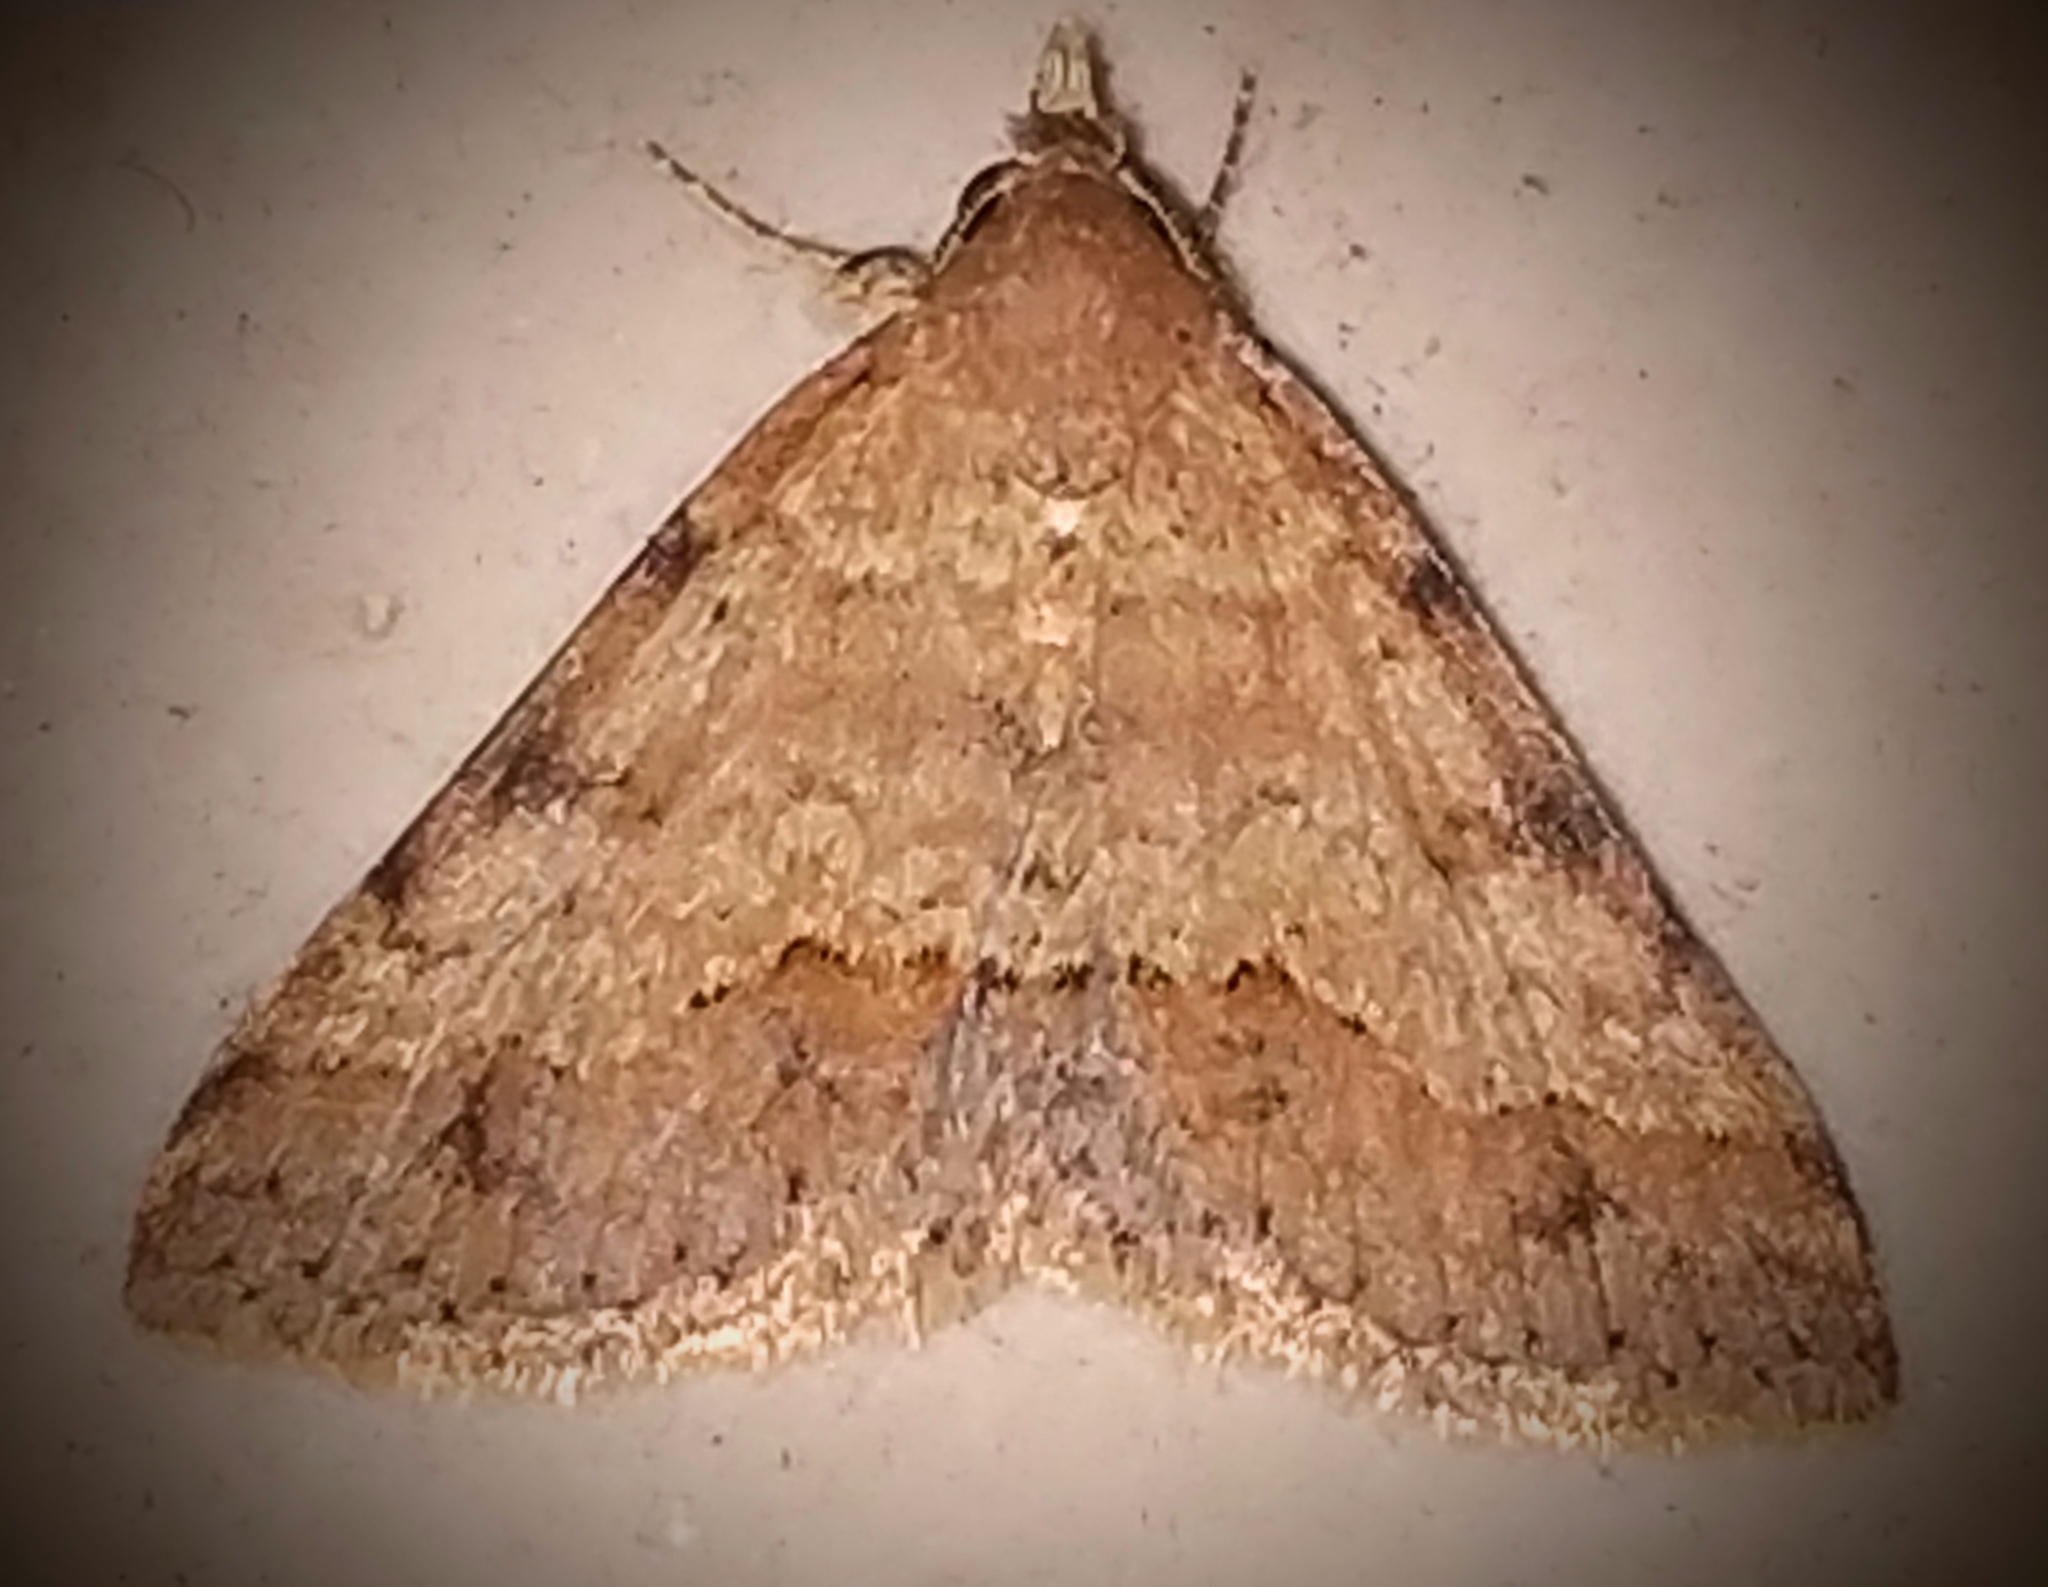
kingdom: Animalia
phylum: Arthropoda
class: Insecta
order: Lepidoptera
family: Erebidae
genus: Gesonia
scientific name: Gesonia obeditalis
